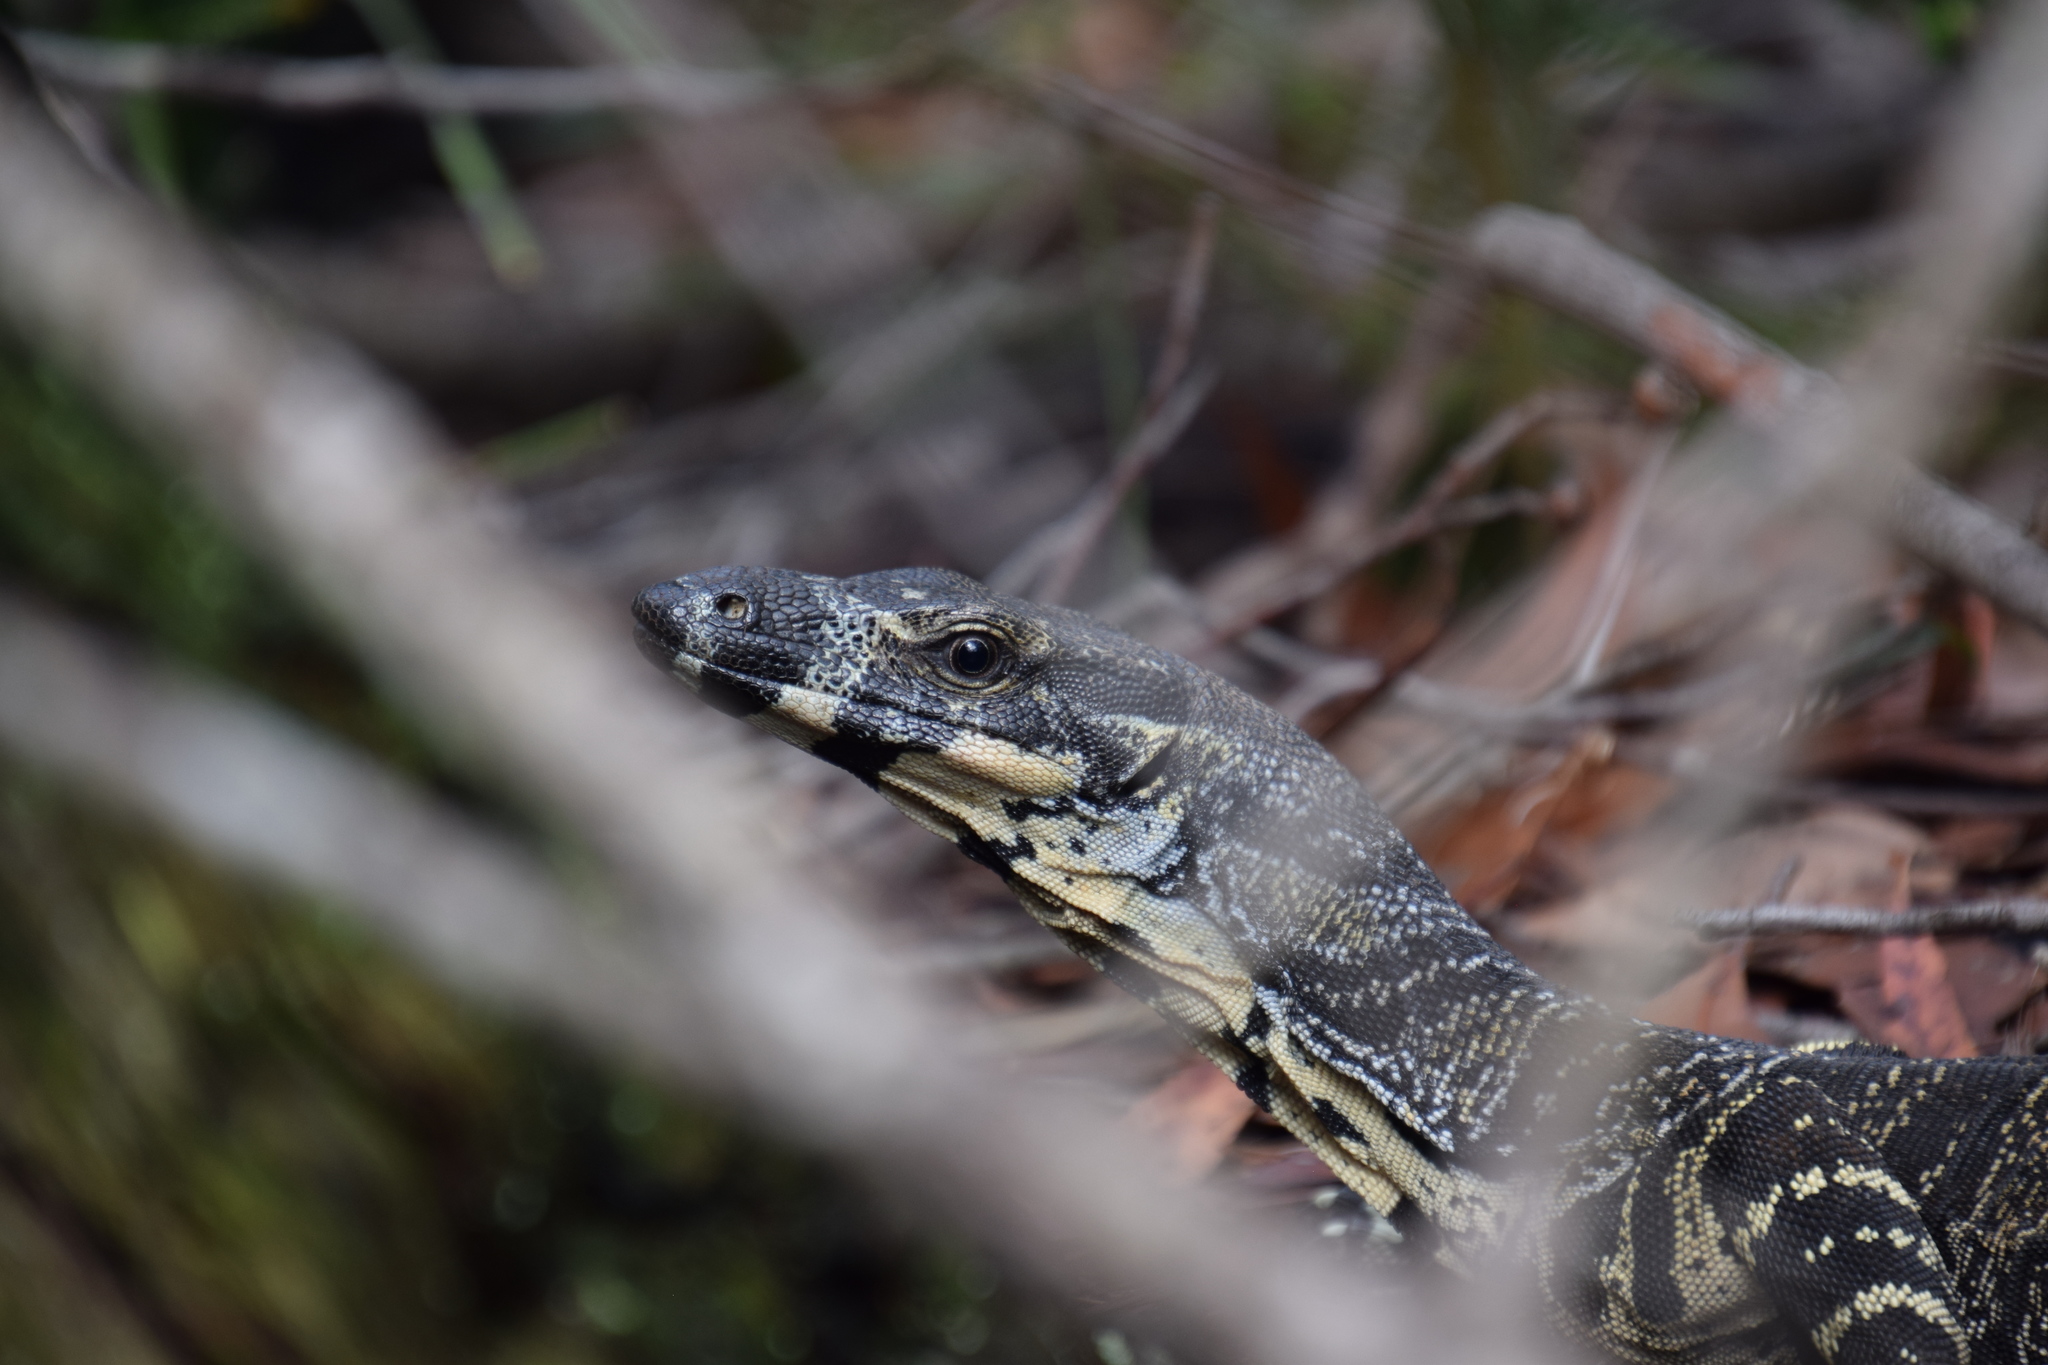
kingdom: Animalia
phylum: Chordata
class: Squamata
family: Varanidae
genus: Varanus
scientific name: Varanus varius
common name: Lace monitor
